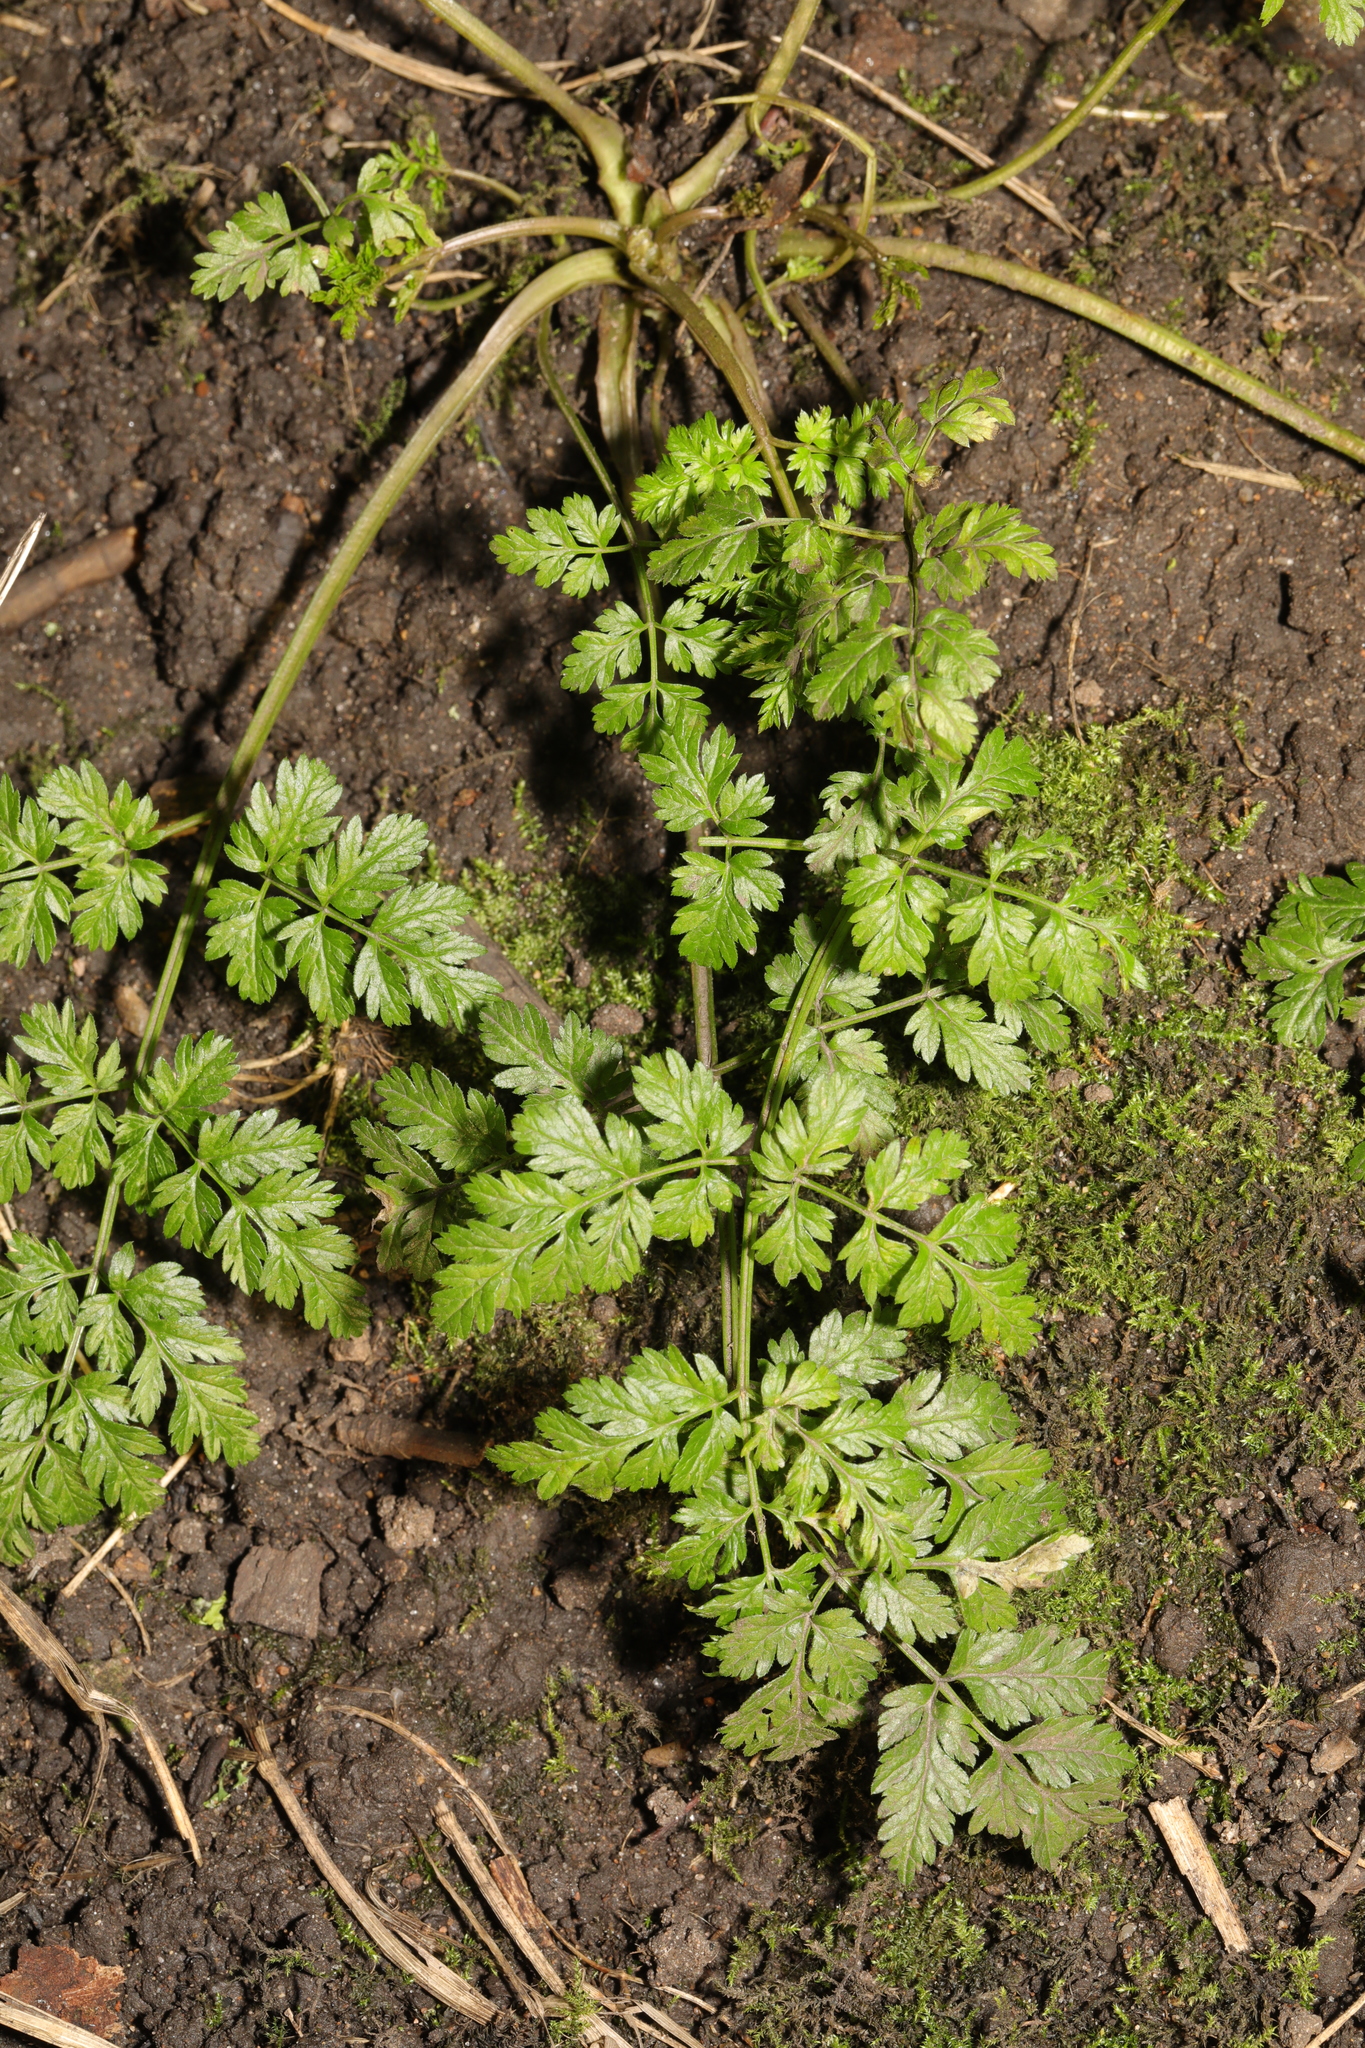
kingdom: Plantae
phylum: Tracheophyta
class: Magnoliopsida
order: Apiales
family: Apiaceae
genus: Anthriscus
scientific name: Anthriscus sylvestris
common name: Cow parsley
